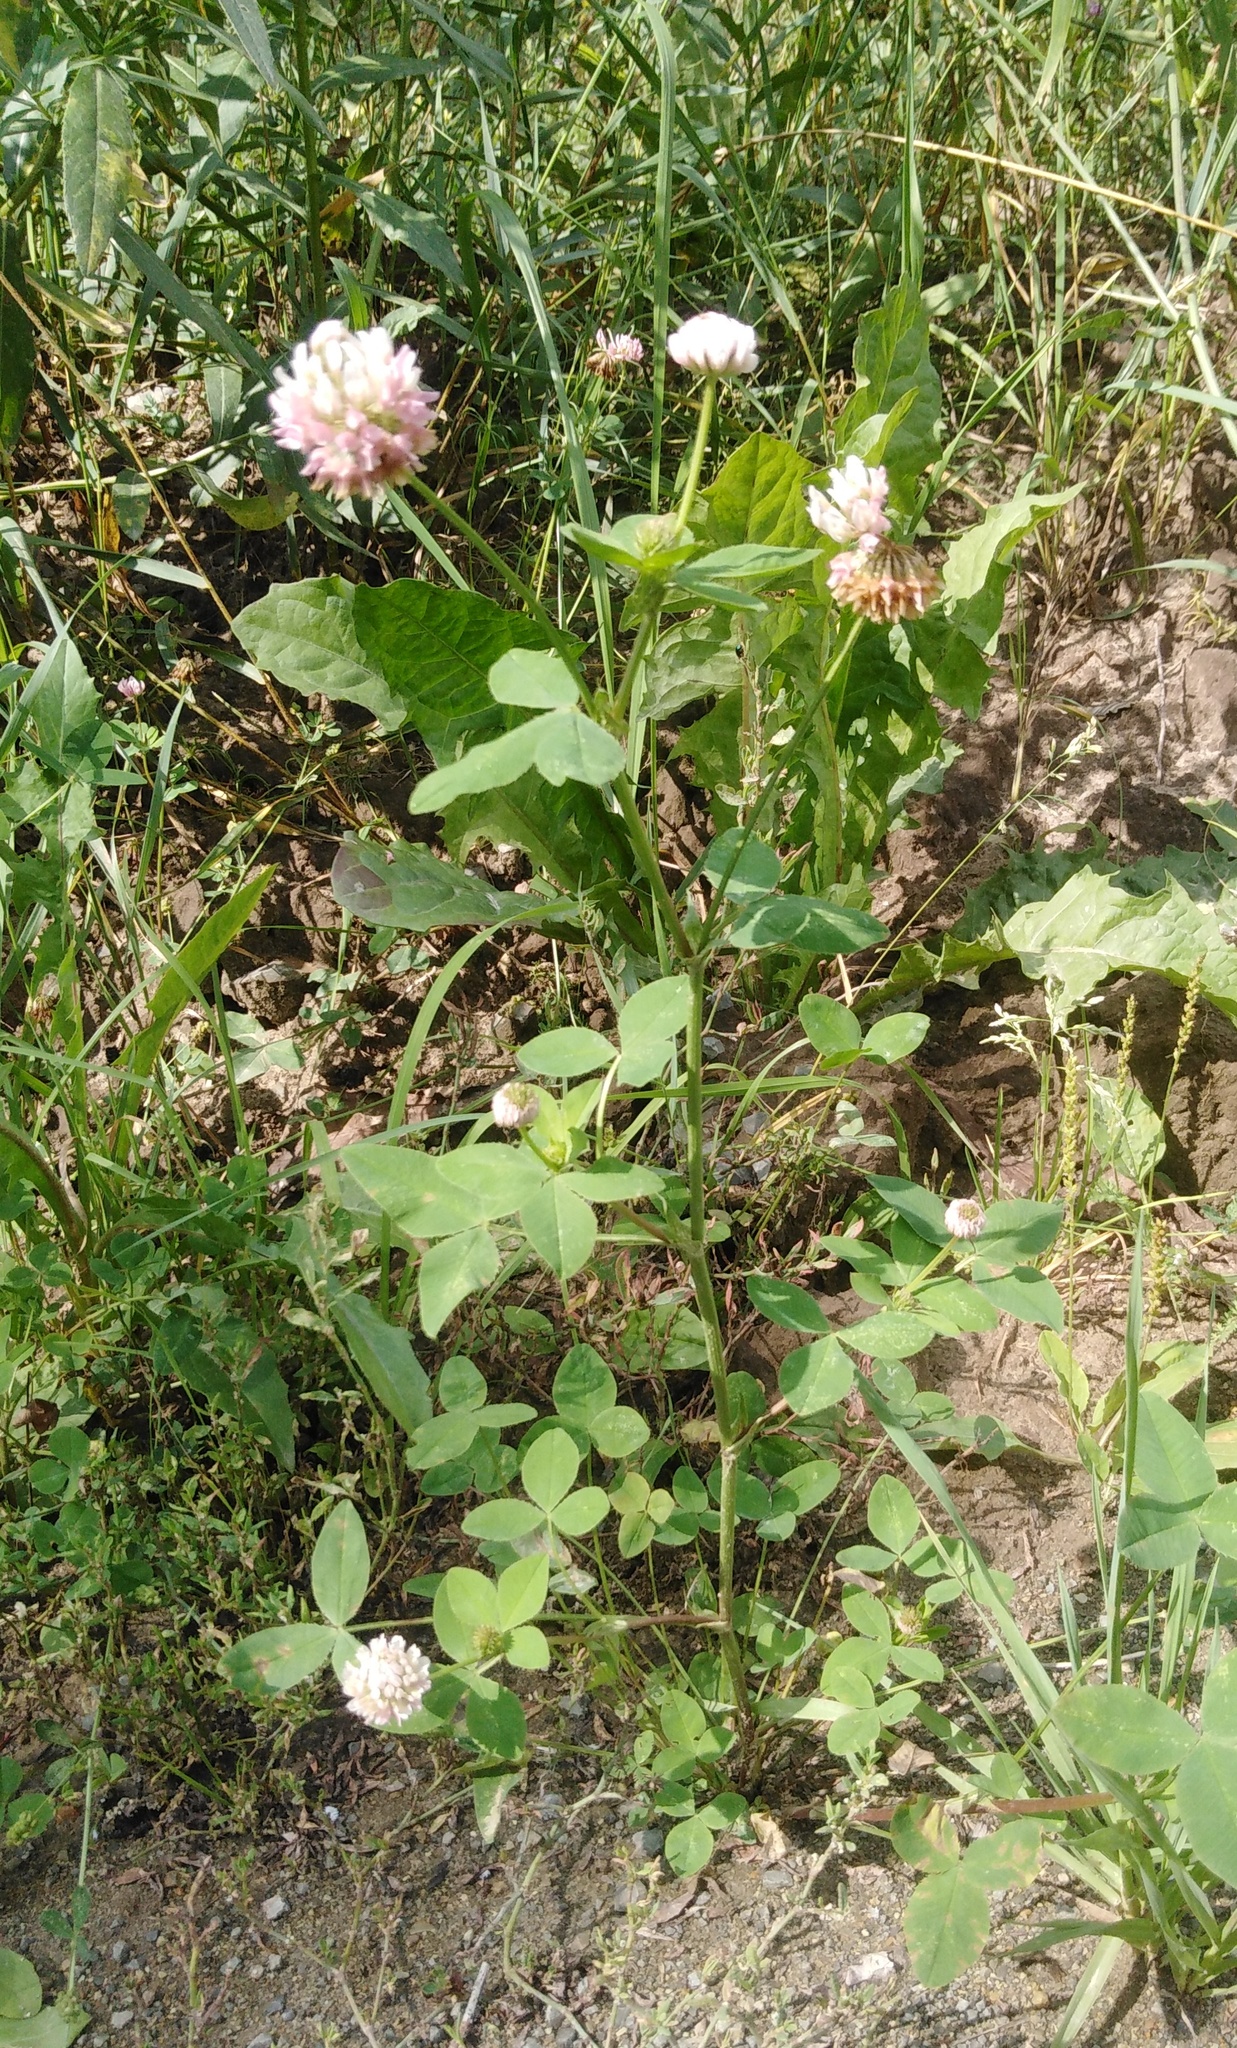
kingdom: Plantae
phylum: Tracheophyta
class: Magnoliopsida
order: Fabales
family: Fabaceae
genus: Trifolium
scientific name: Trifolium hybridum
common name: Alsike clover
